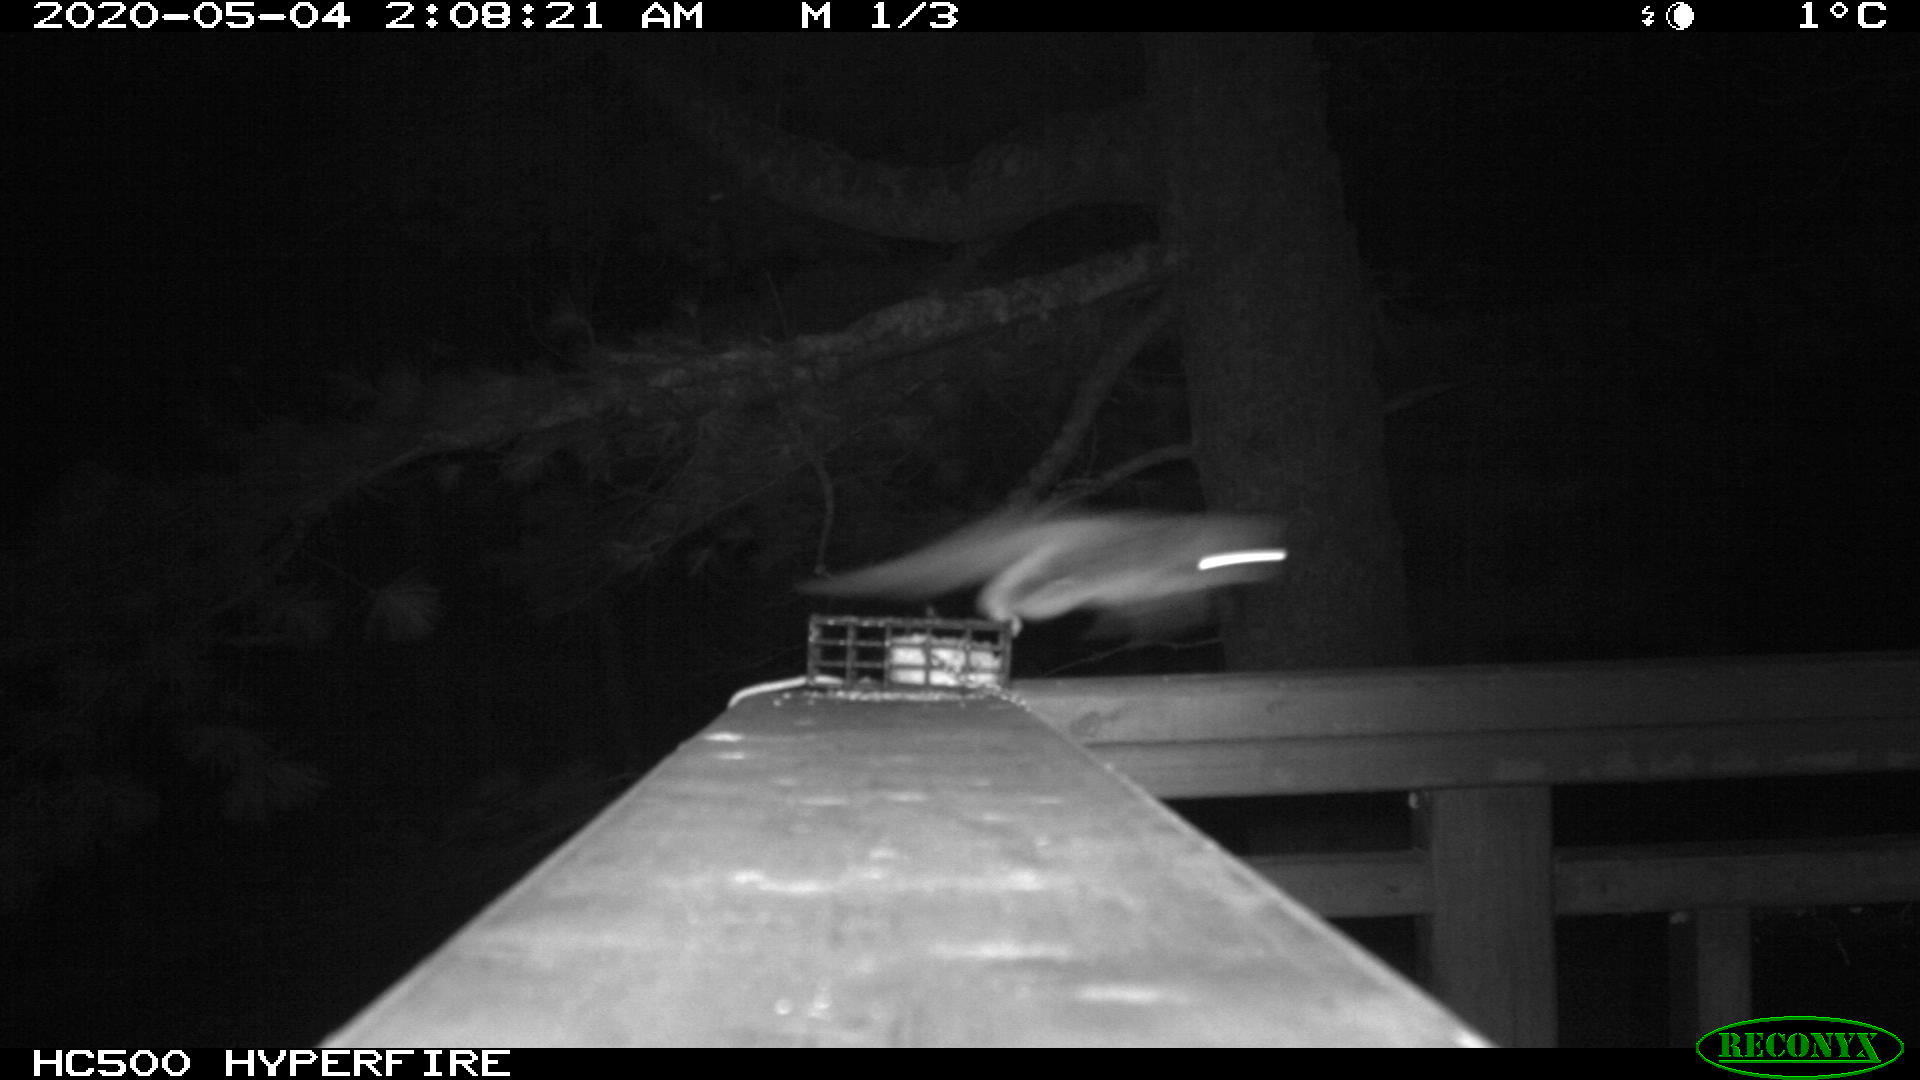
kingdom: Animalia
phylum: Chordata
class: Mammalia
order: Rodentia
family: Sciuridae
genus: Glaucomys
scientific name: Glaucomys sabrinus
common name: Northern flying squirrel
